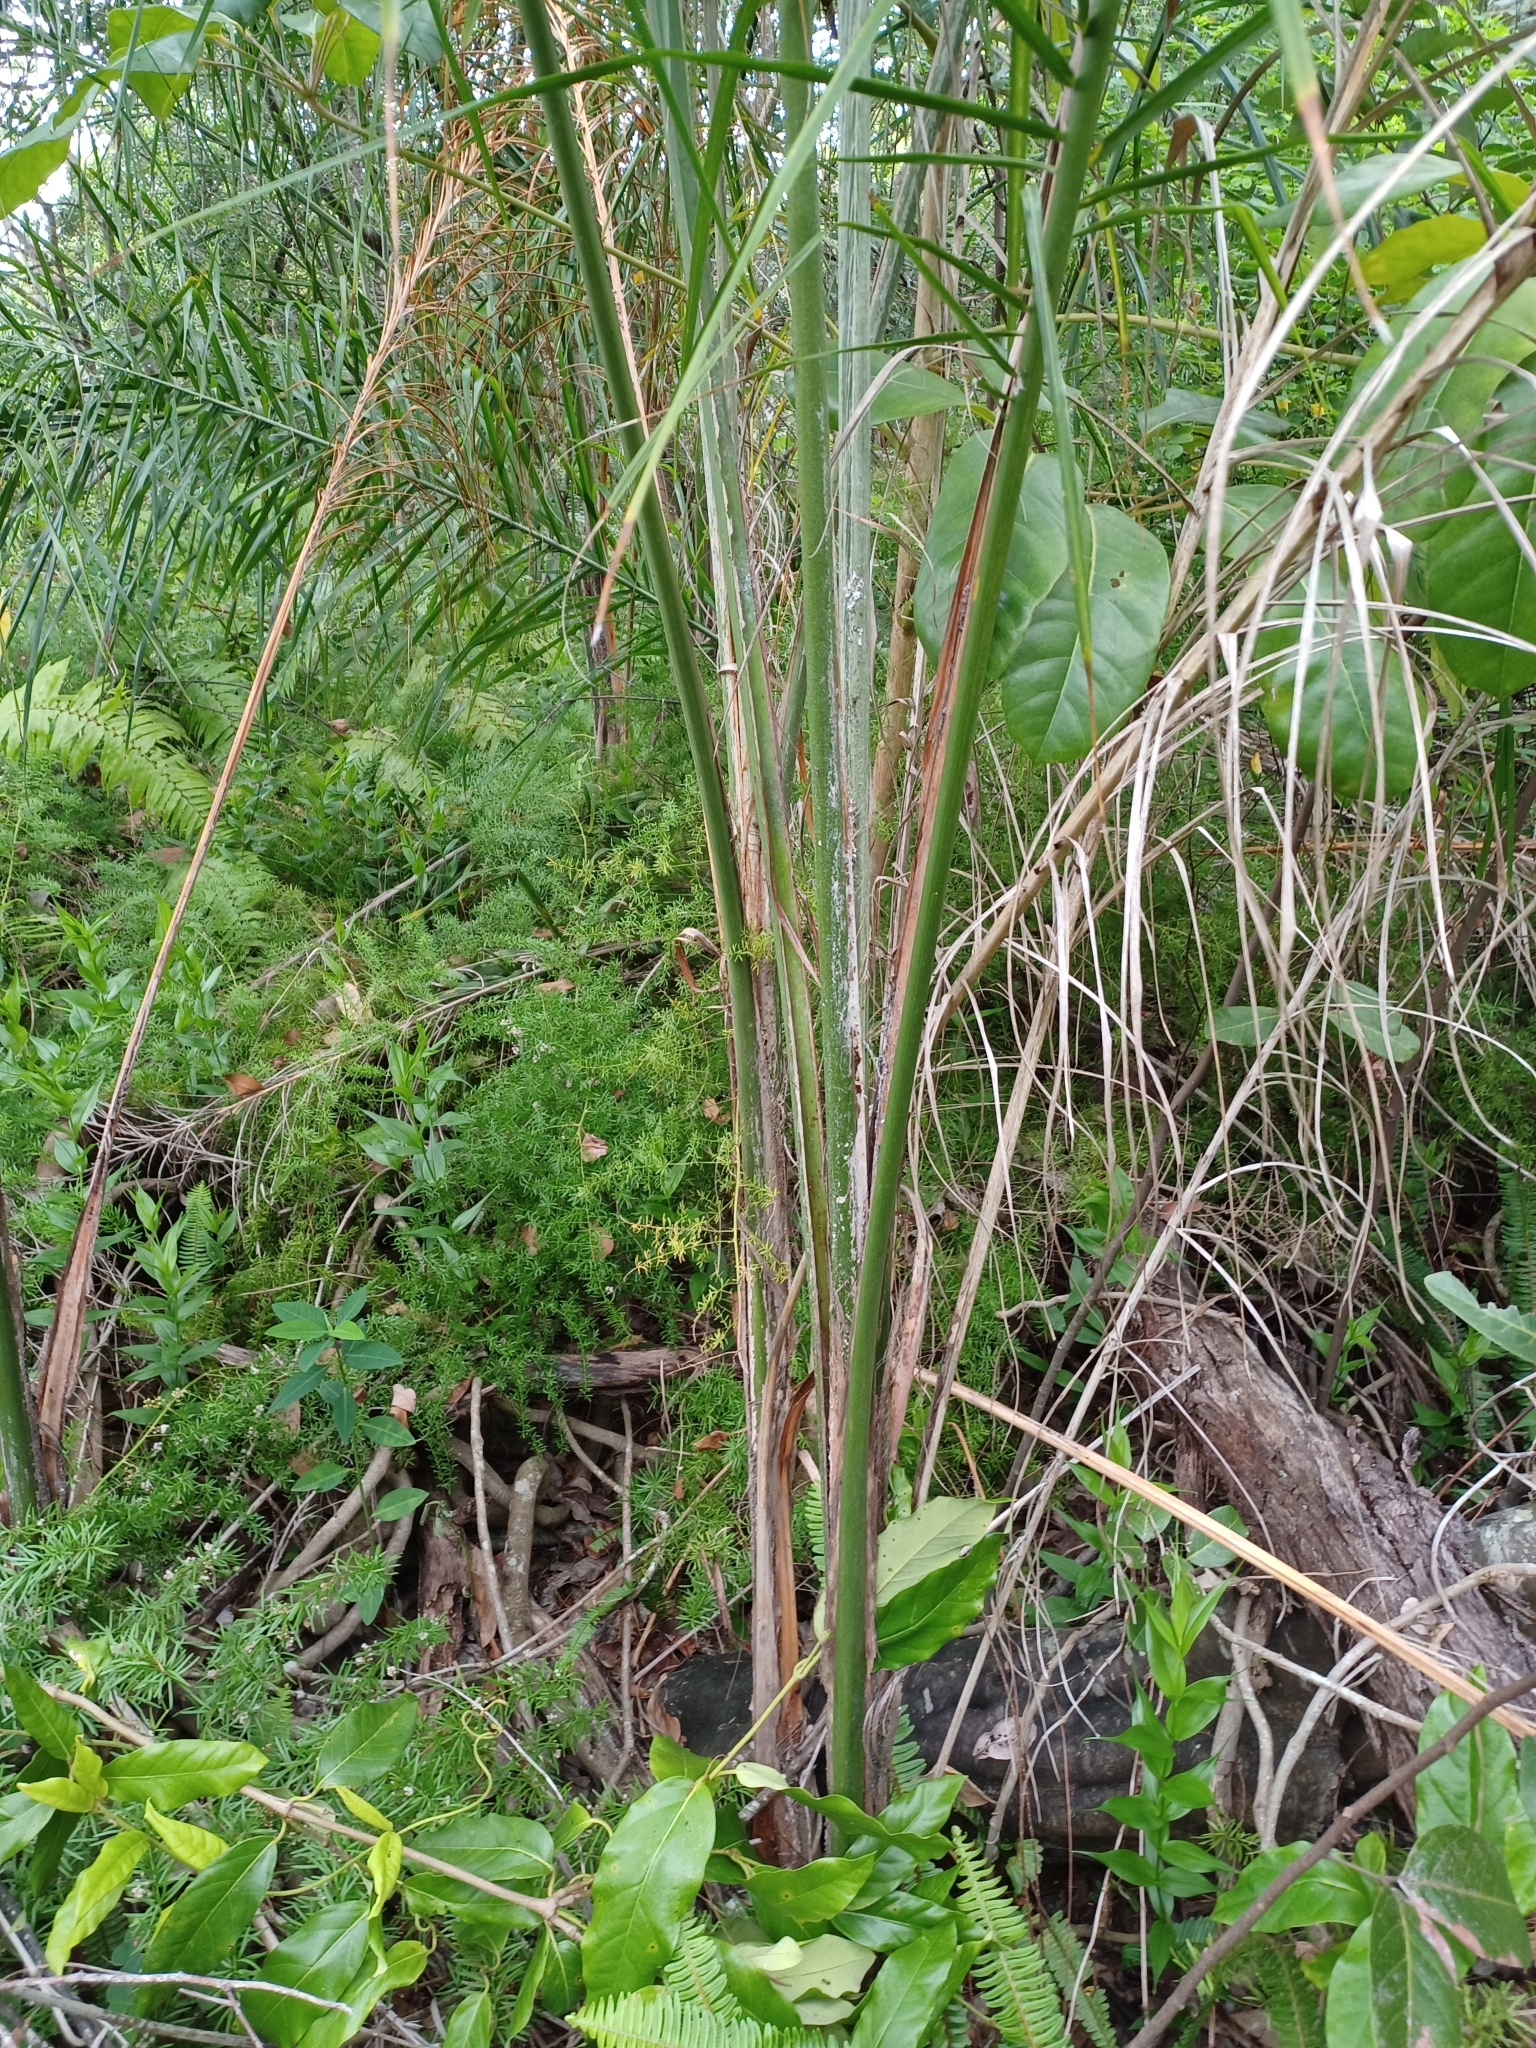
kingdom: Plantae
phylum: Tracheophyta
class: Liliopsida
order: Arecales
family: Arecaceae
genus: Syagrus
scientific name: Syagrus romanzoffiana
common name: Queen palm
